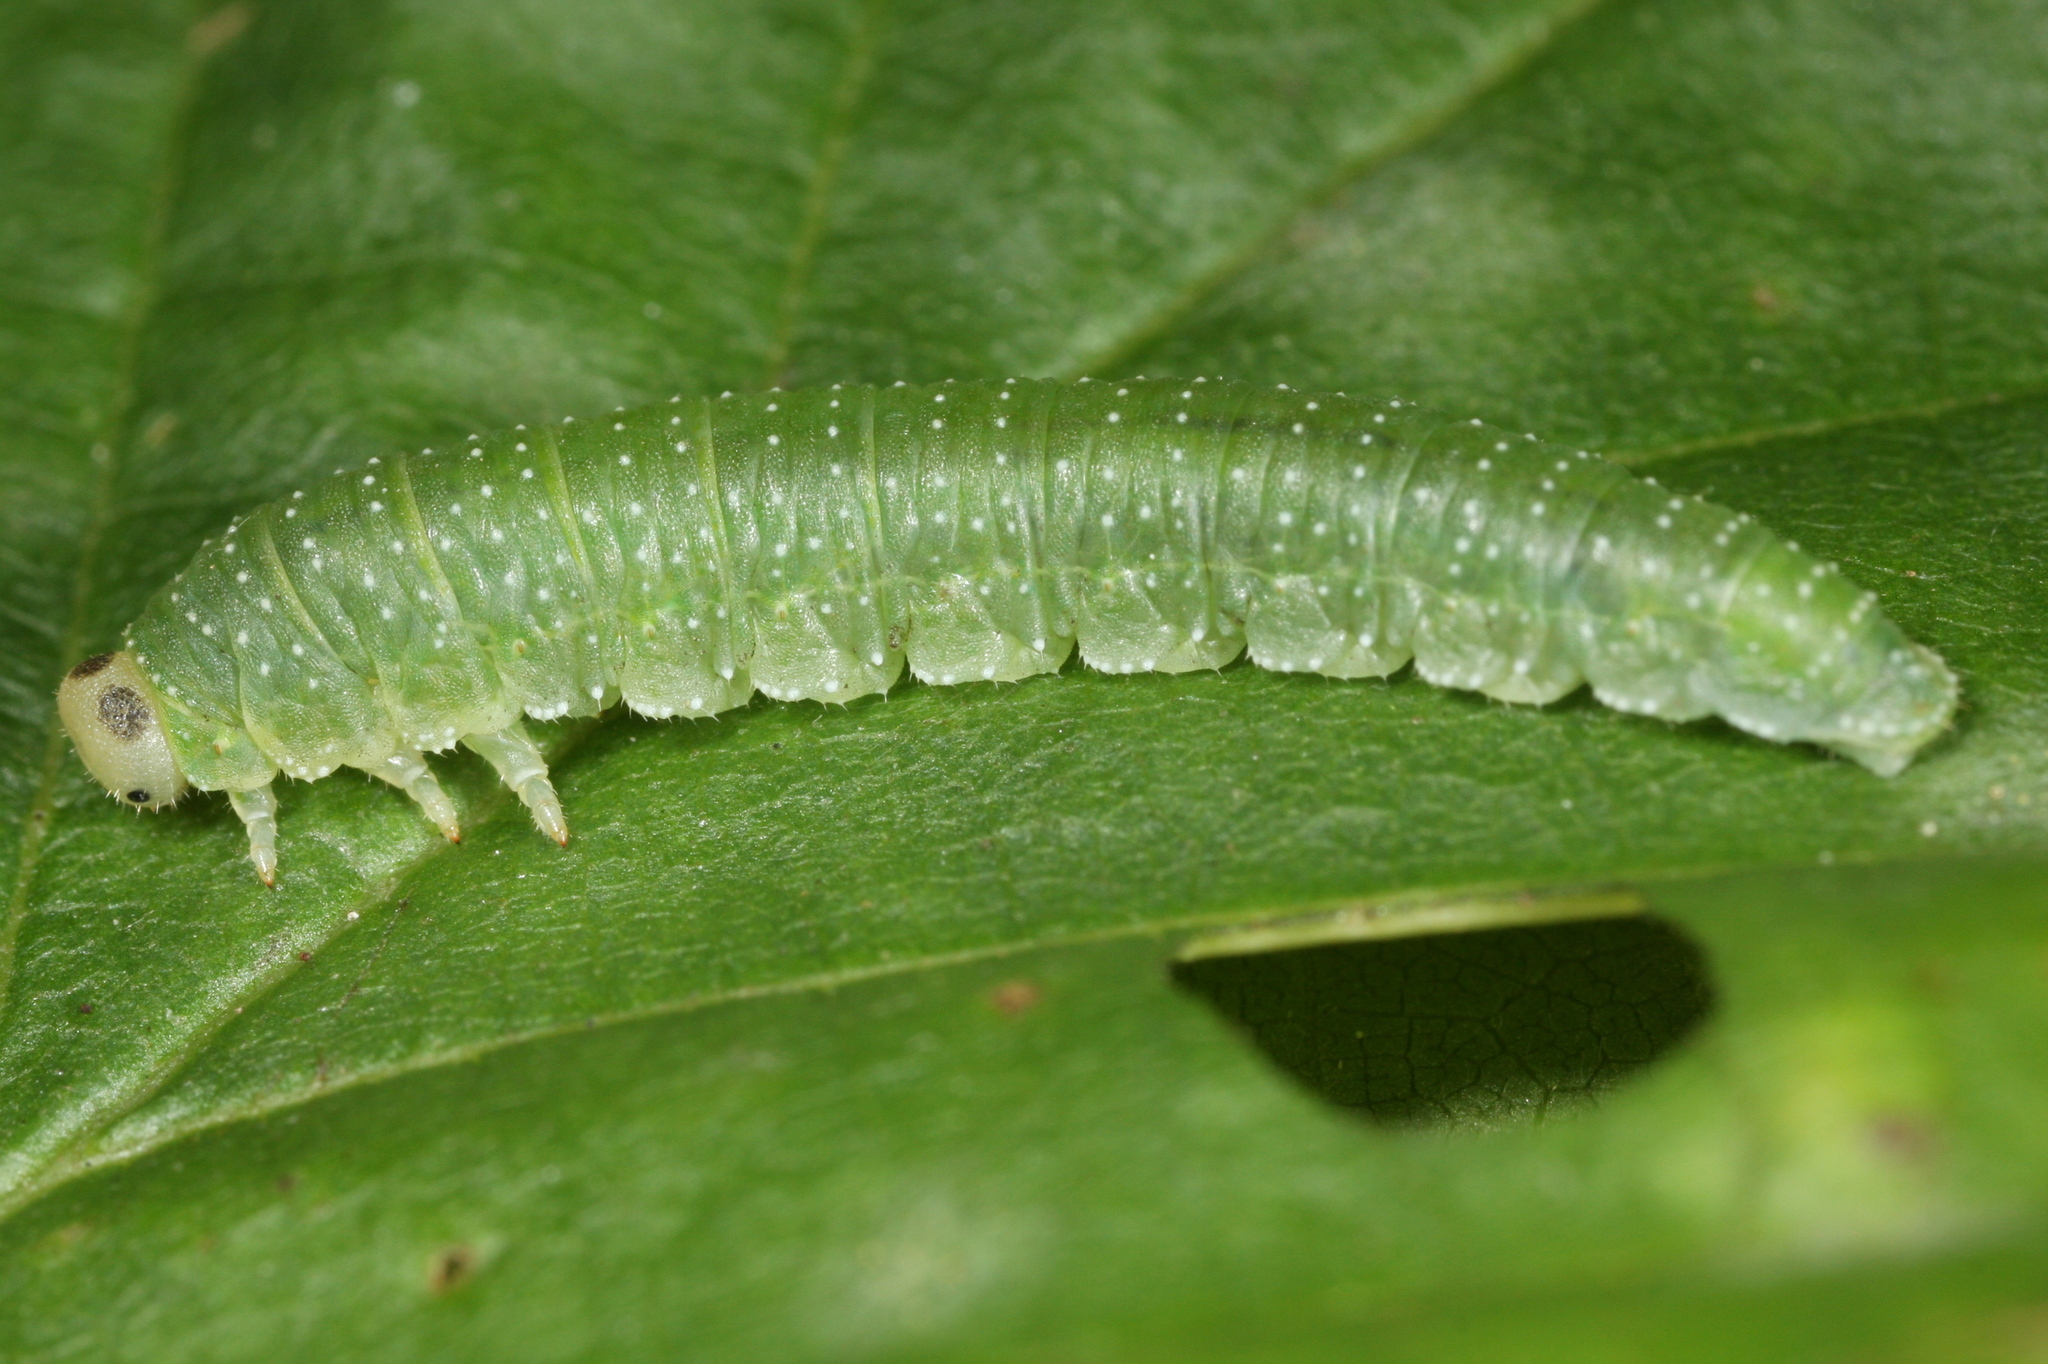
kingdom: Animalia
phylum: Arthropoda
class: Insecta
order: Hymenoptera
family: Tenthredinidae
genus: Nematinus
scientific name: Nematinus steini
